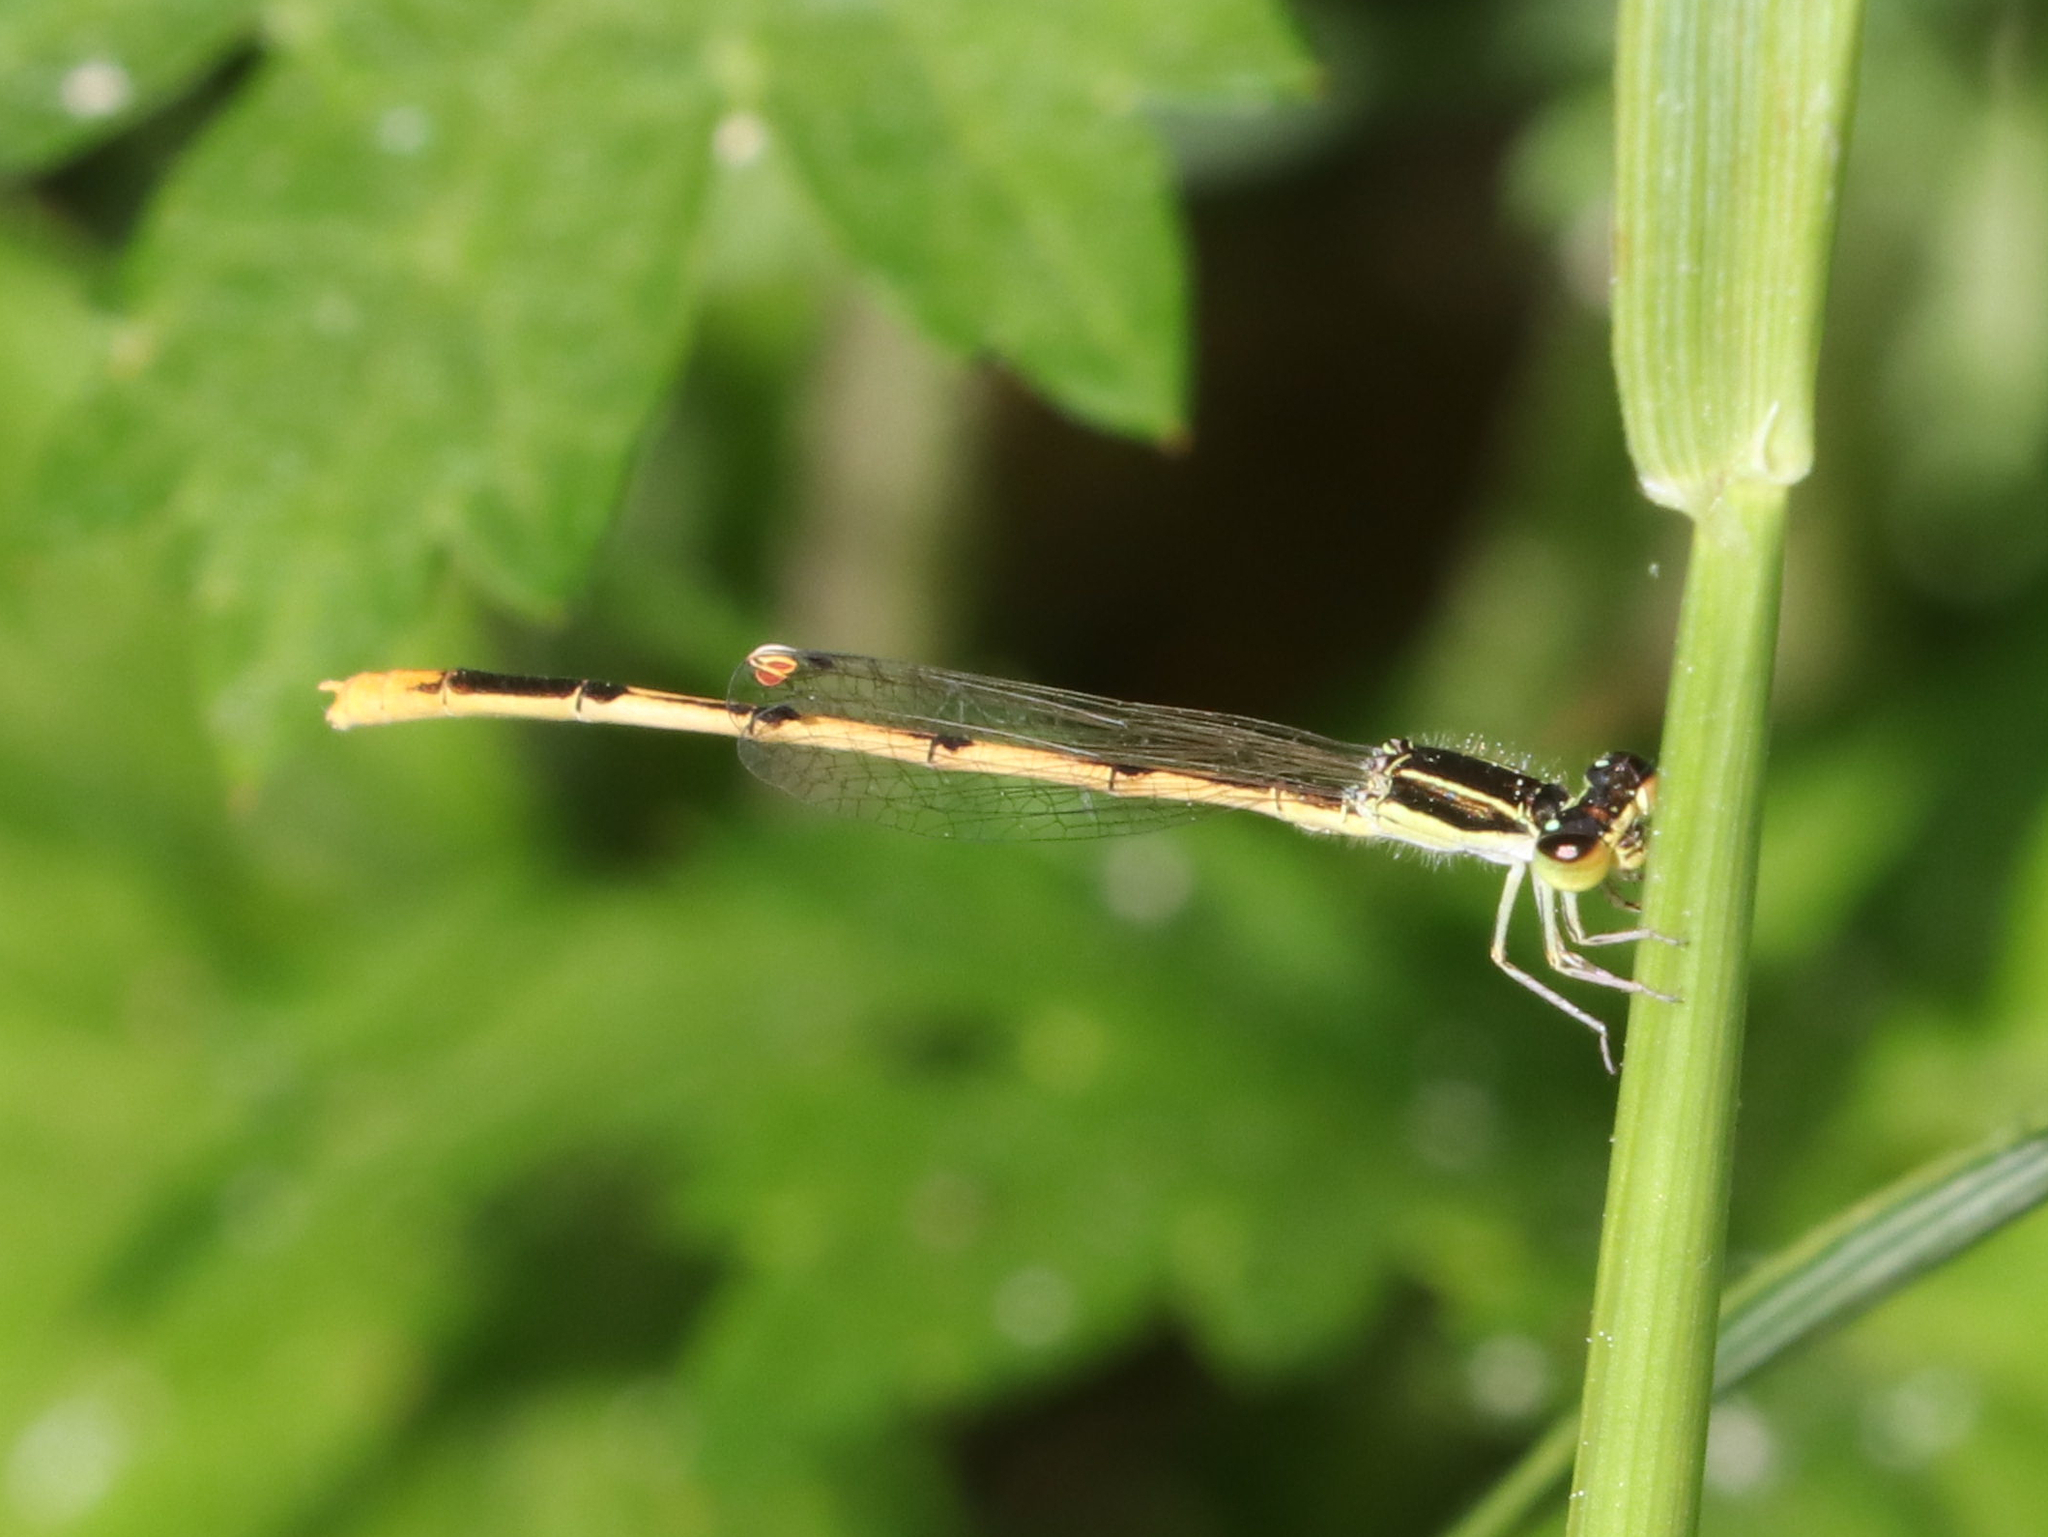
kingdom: Animalia
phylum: Arthropoda
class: Insecta
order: Odonata
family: Coenagrionidae
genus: Ischnura
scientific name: Ischnura hastata
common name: Citrine forktail
